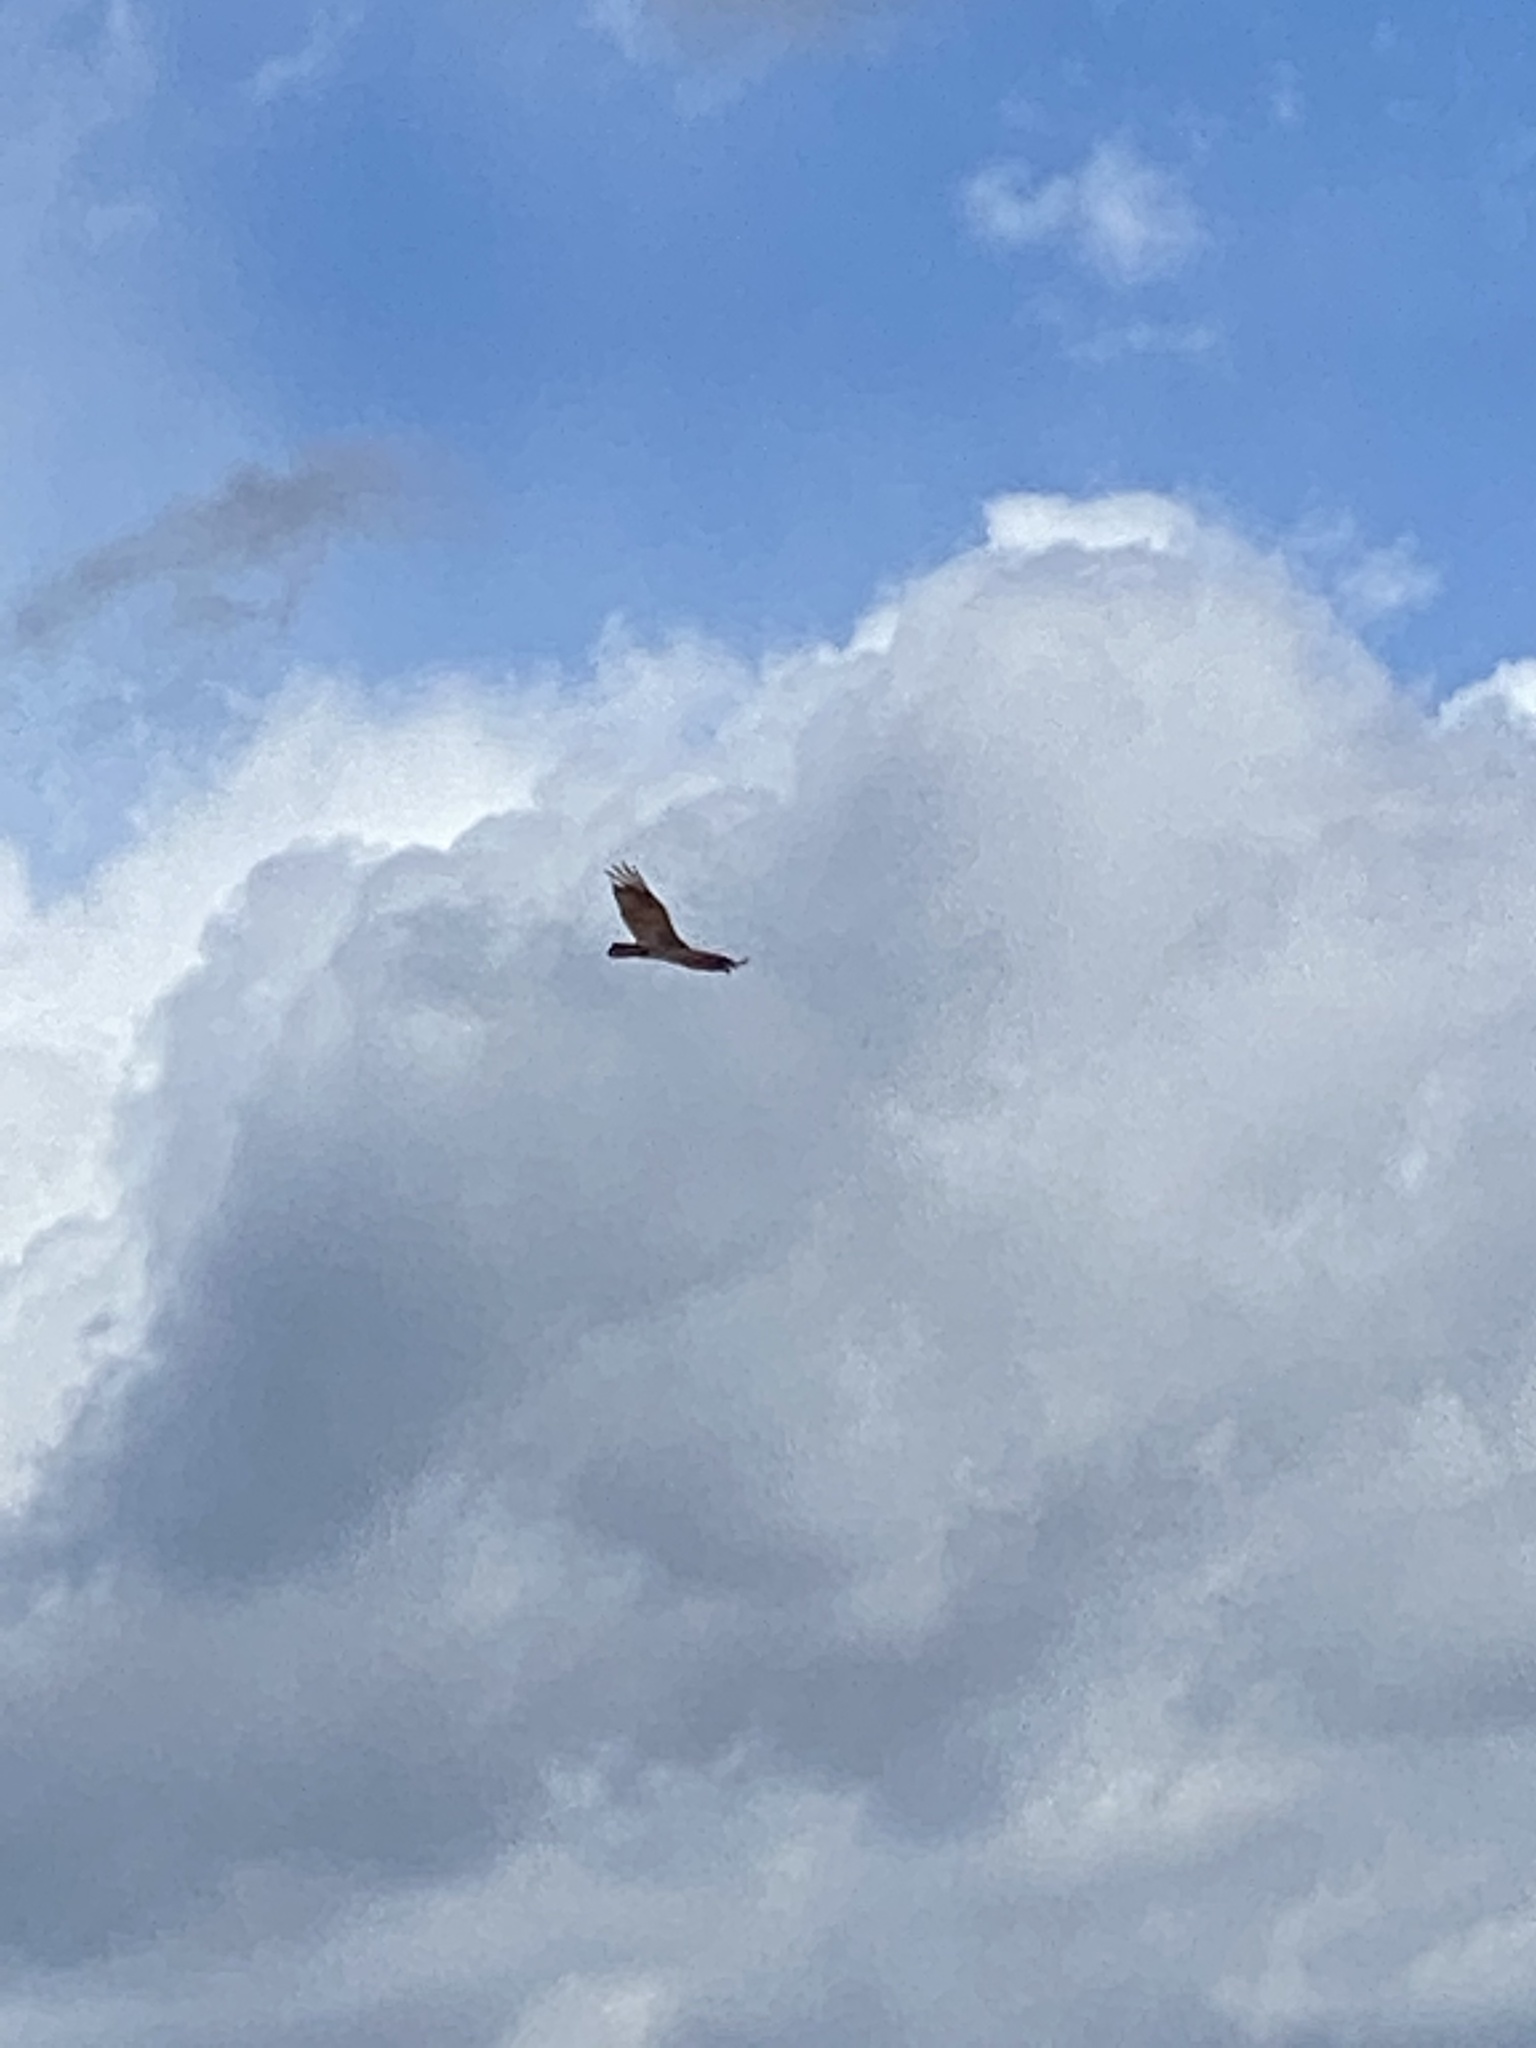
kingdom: Animalia
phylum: Chordata
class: Aves
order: Accipitriformes
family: Cathartidae
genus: Cathartes
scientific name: Cathartes aura
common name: Turkey vulture
